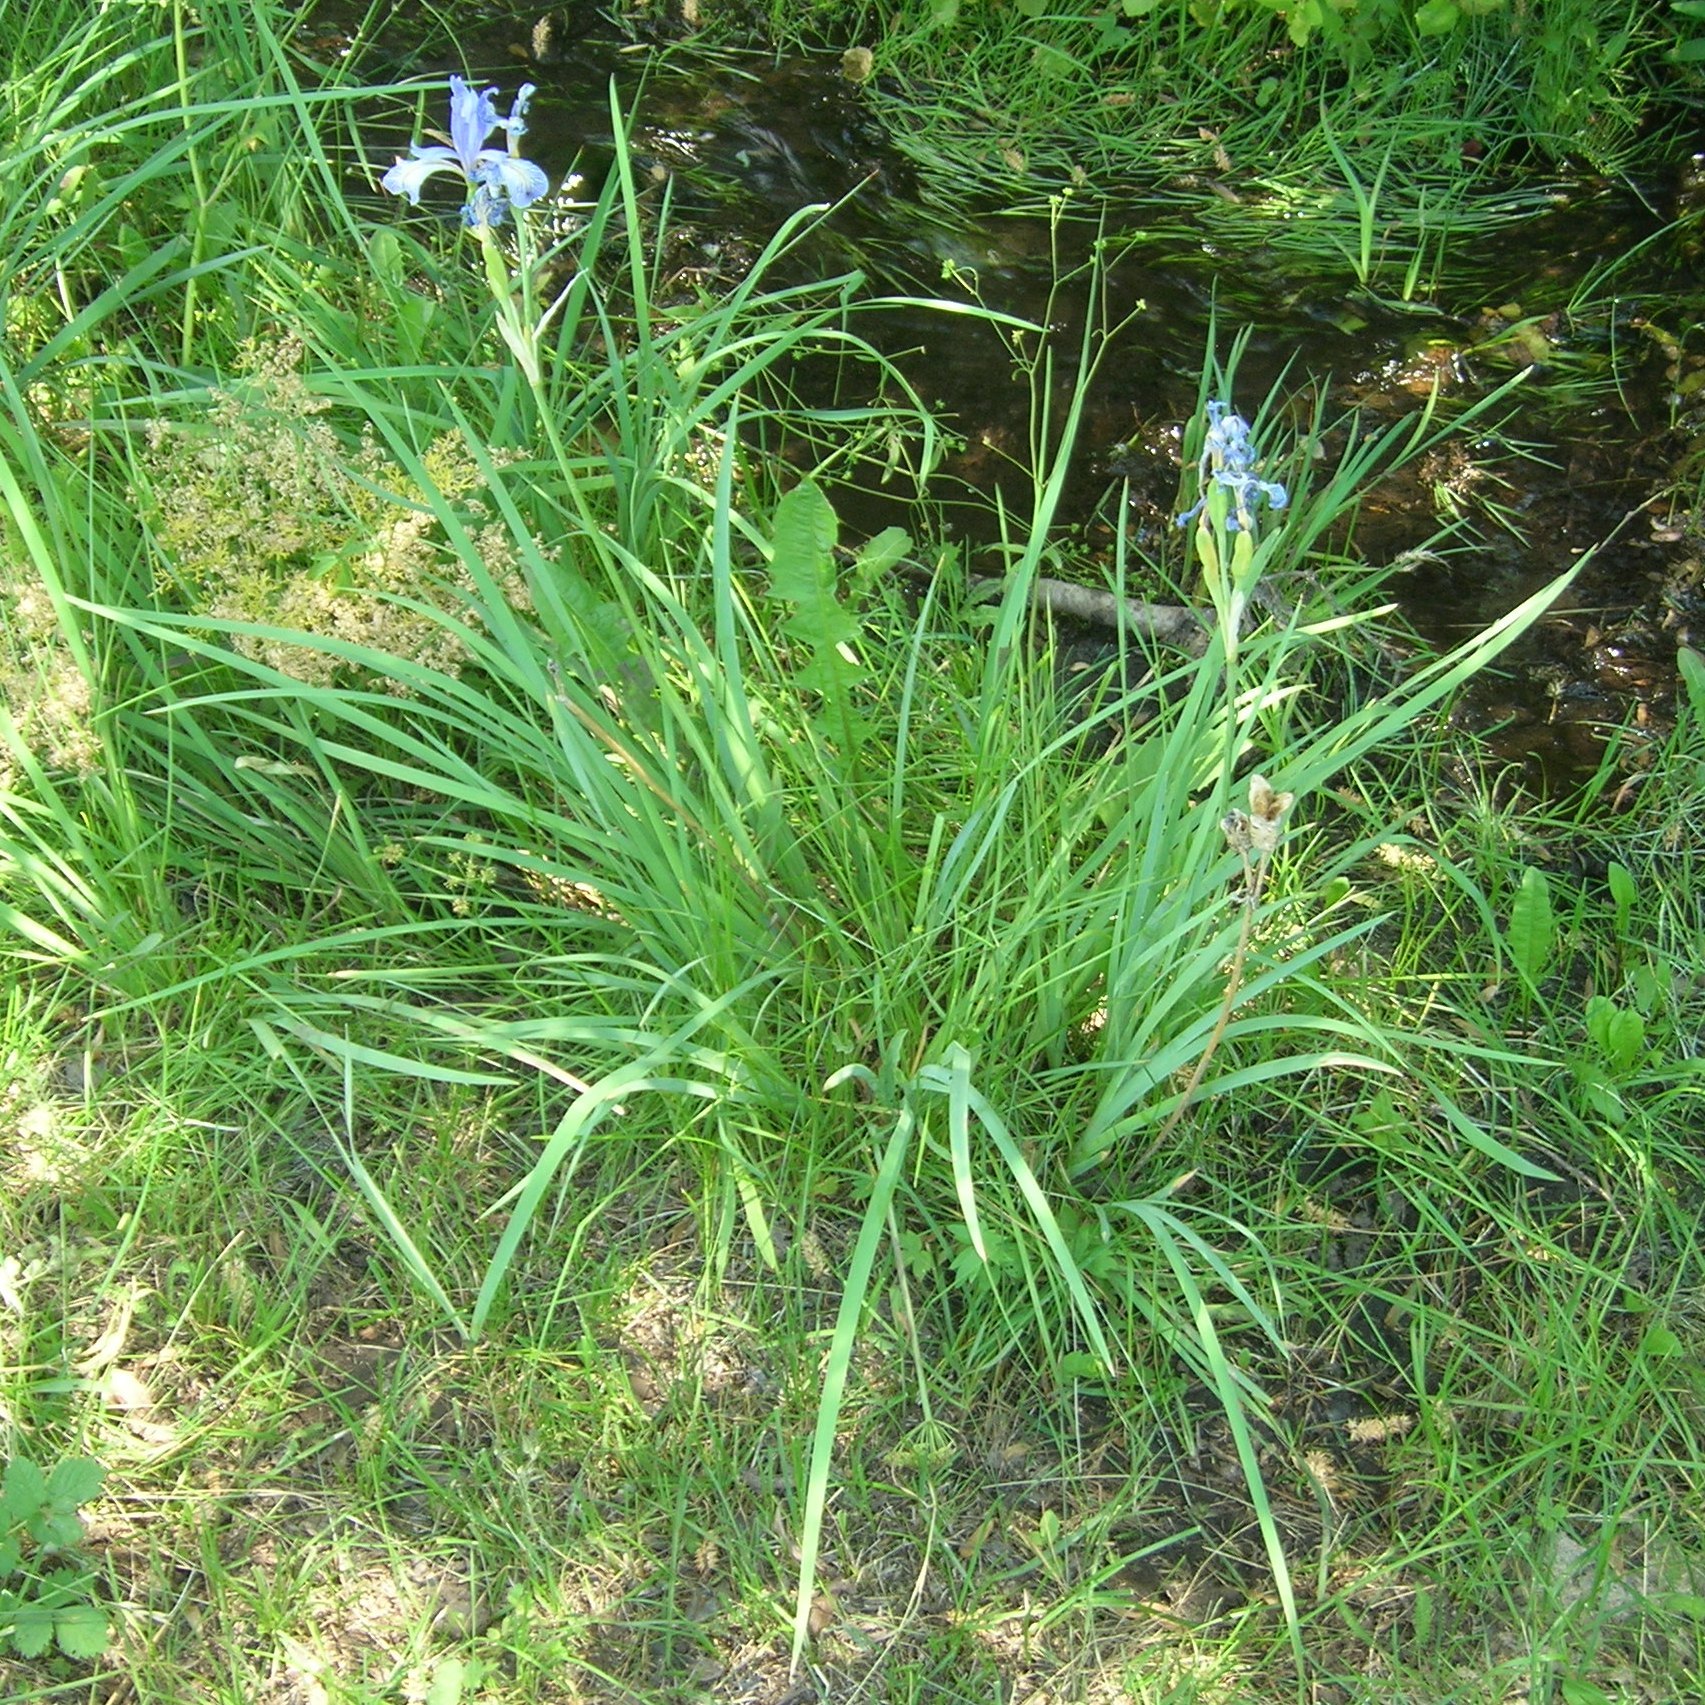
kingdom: Plantae
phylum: Tracheophyta
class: Liliopsida
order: Asparagales
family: Iridaceae
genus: Iris
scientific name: Iris missouriensis
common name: Rocky mountain iris
